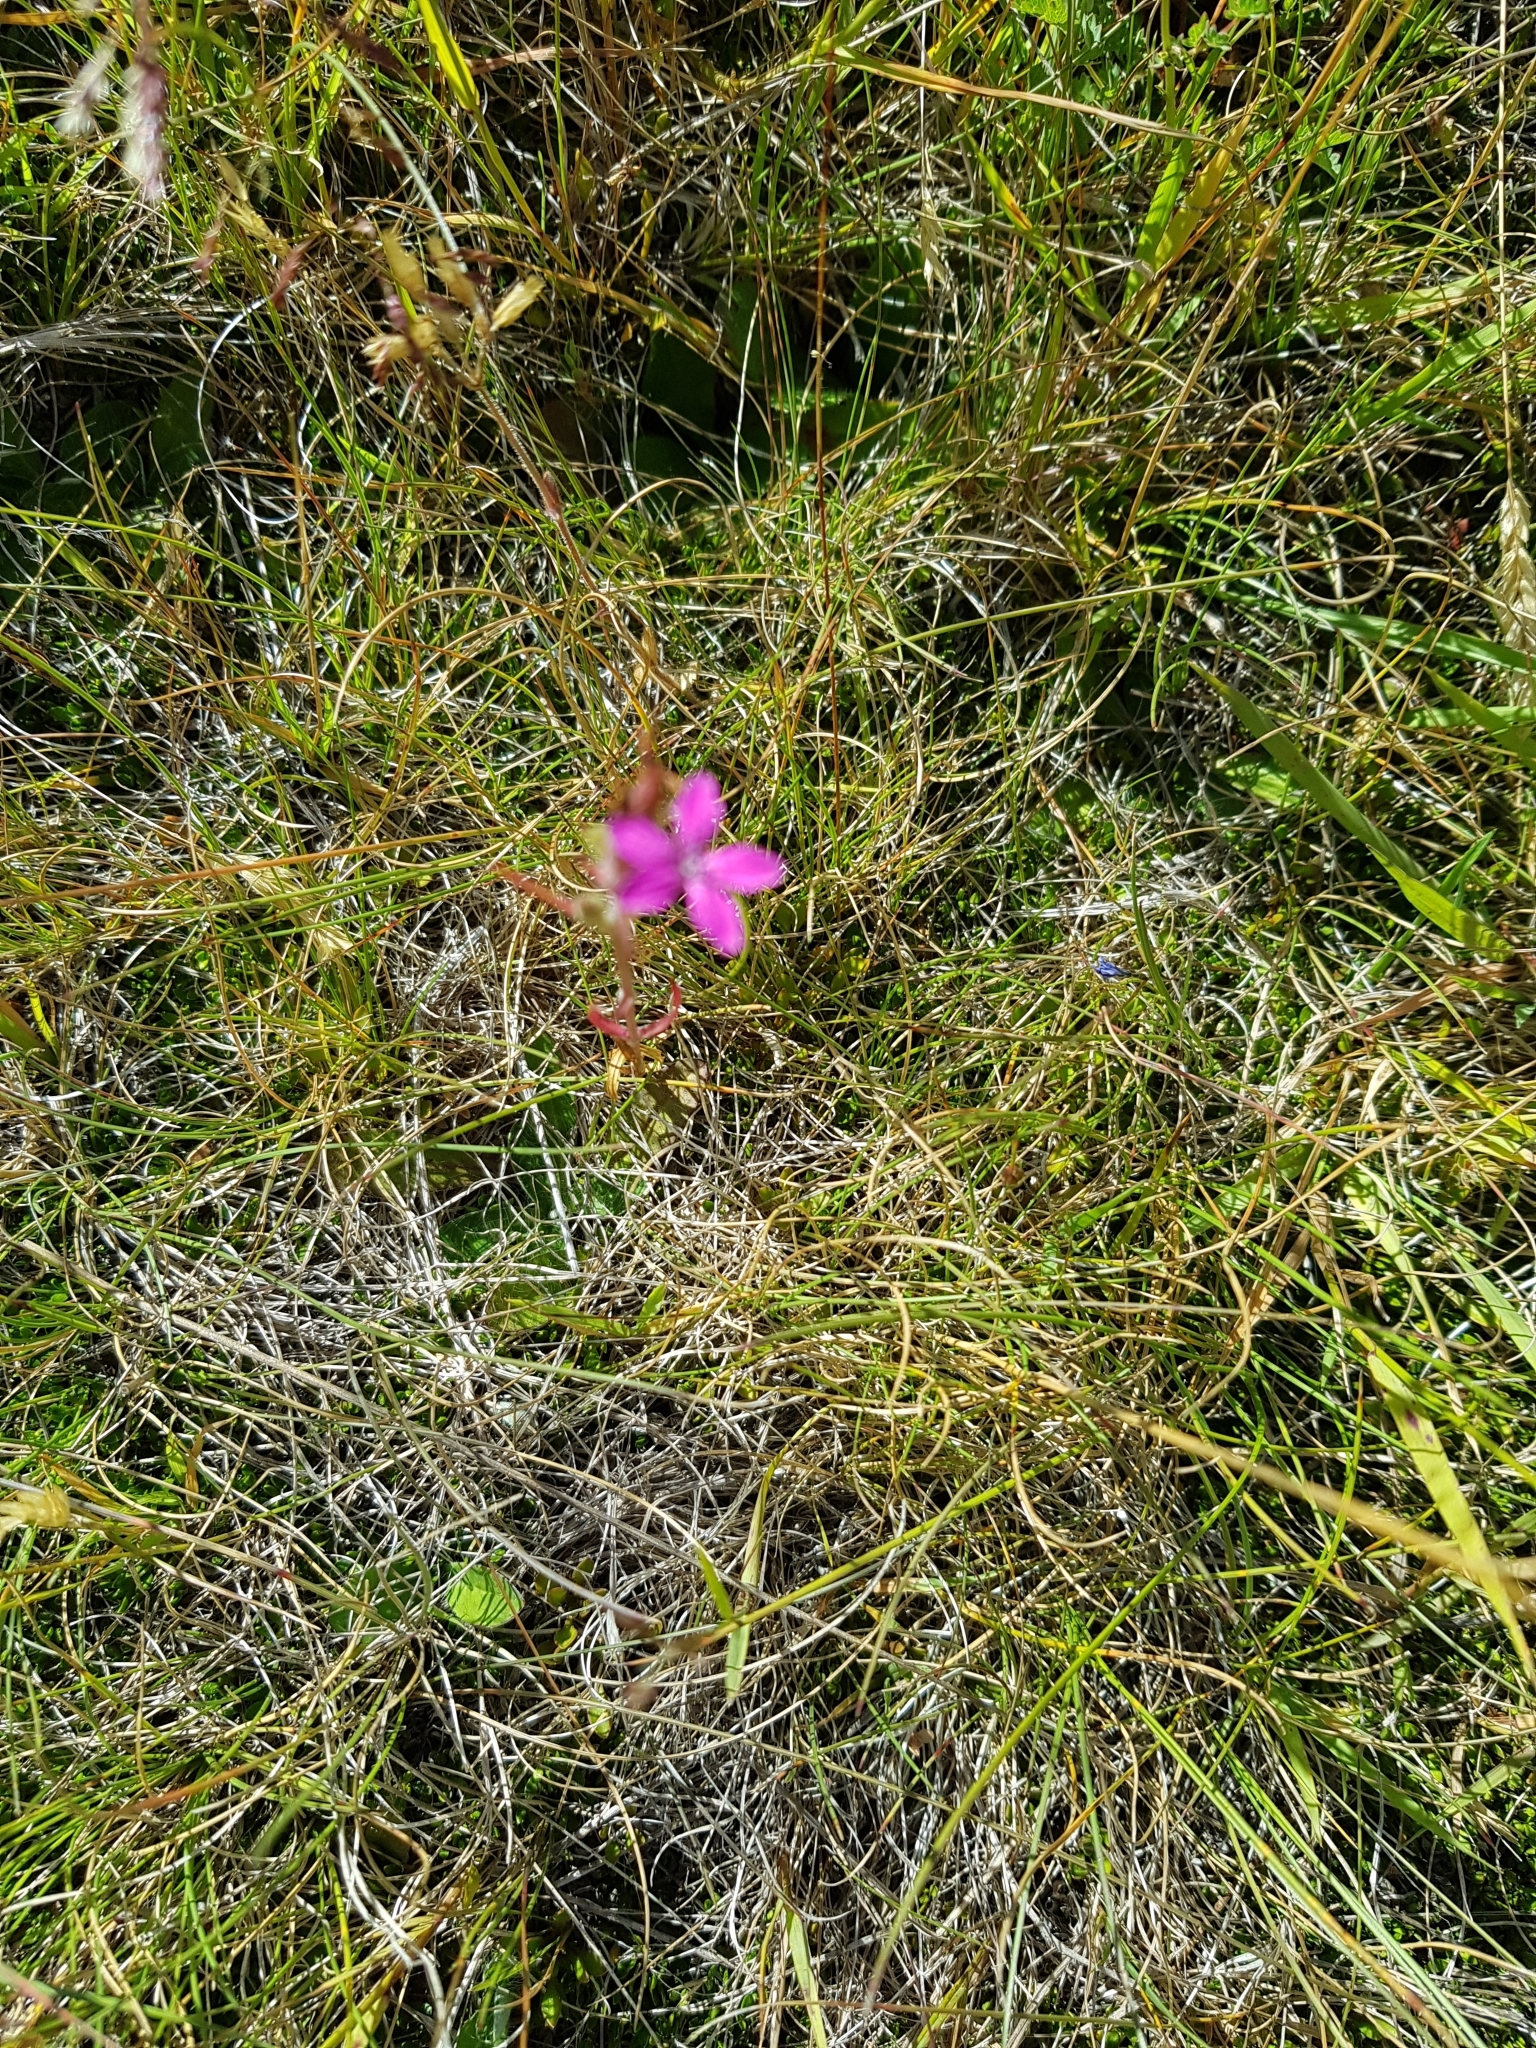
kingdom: Plantae
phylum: Tracheophyta
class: Magnoliopsida
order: Caryophyllales
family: Caryophyllaceae
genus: Dianthus
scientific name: Dianthus armeria
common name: Deptford pink
